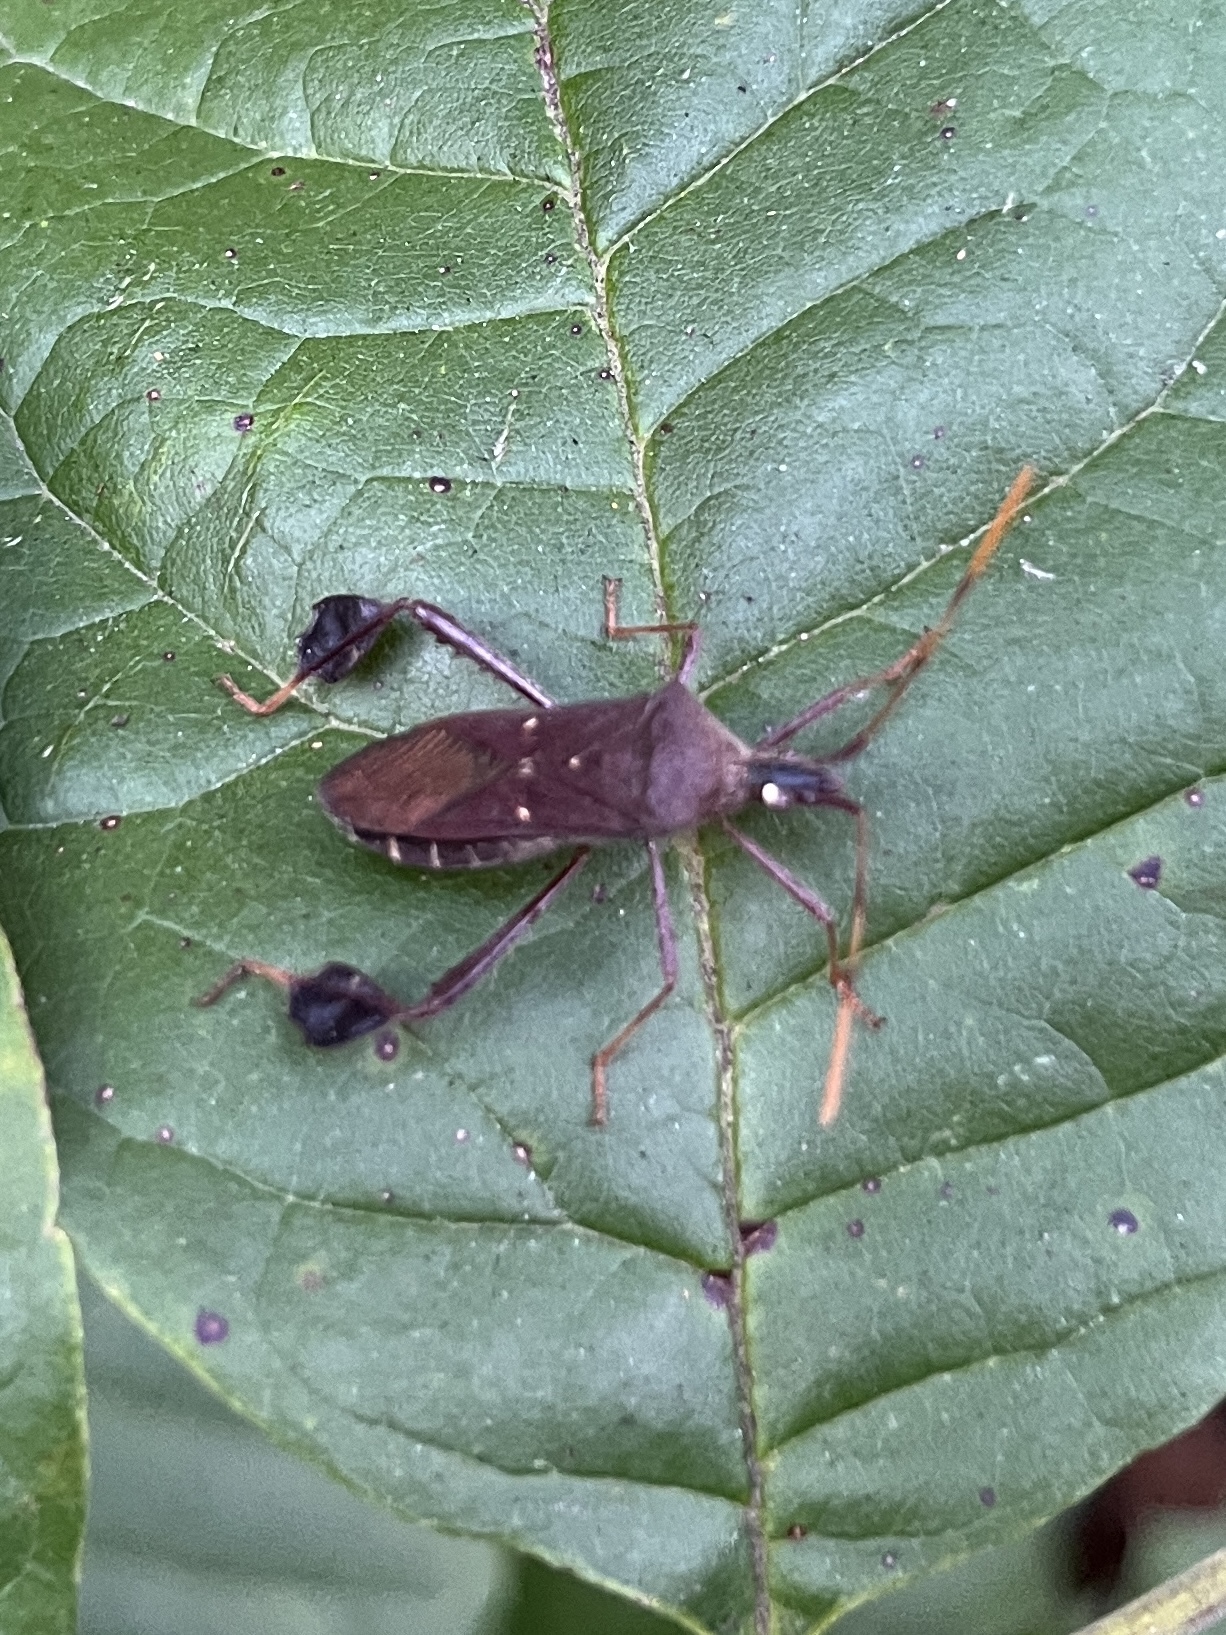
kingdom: Animalia
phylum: Arthropoda
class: Insecta
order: Hemiptera
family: Coreidae
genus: Leptoglossus
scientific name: Leptoglossus oppositus
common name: Northern leaf-footed bug
